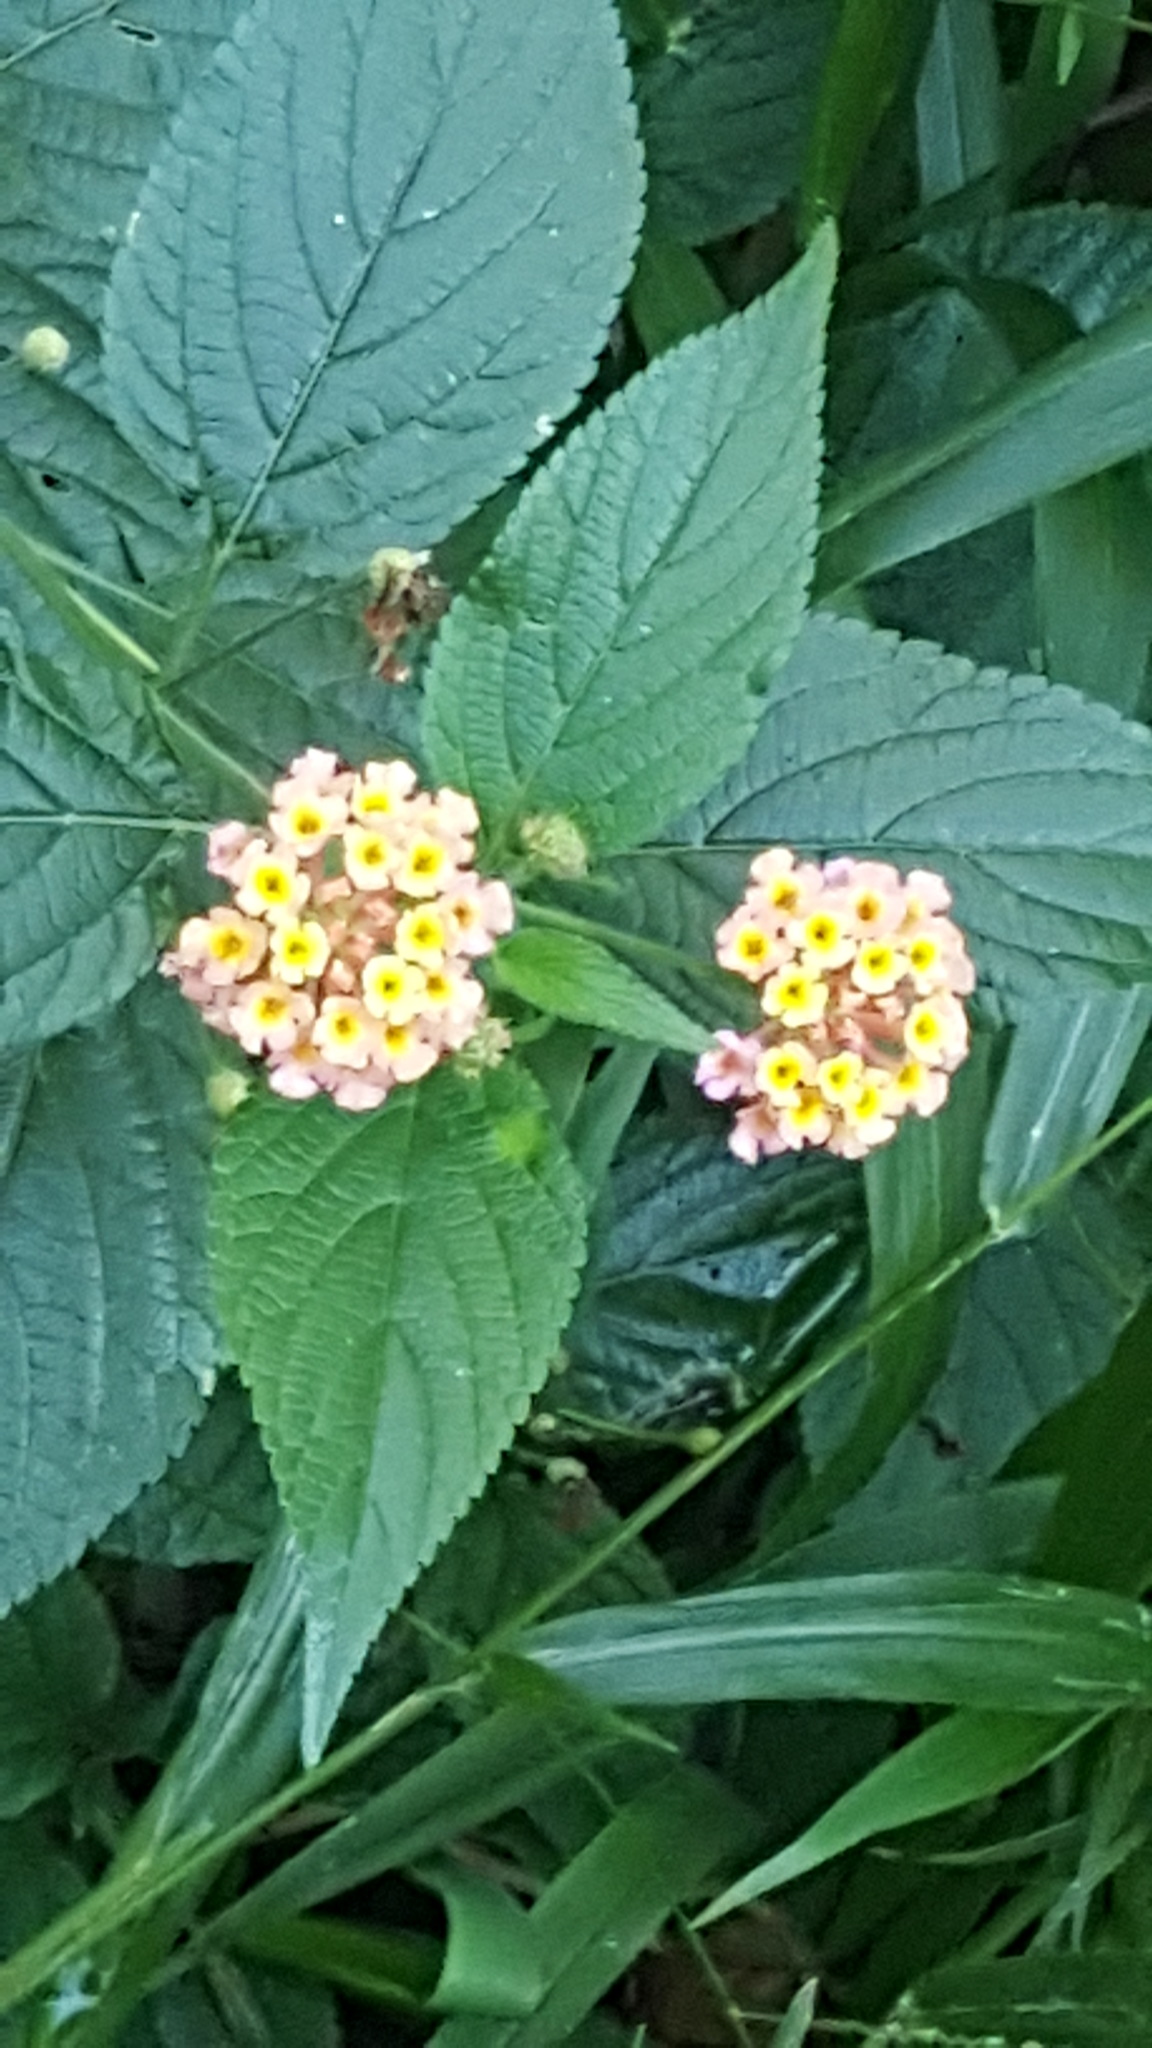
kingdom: Plantae
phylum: Tracheophyta
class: Magnoliopsida
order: Lamiales
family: Verbenaceae
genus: Lantana
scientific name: Lantana camara
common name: Lantana
